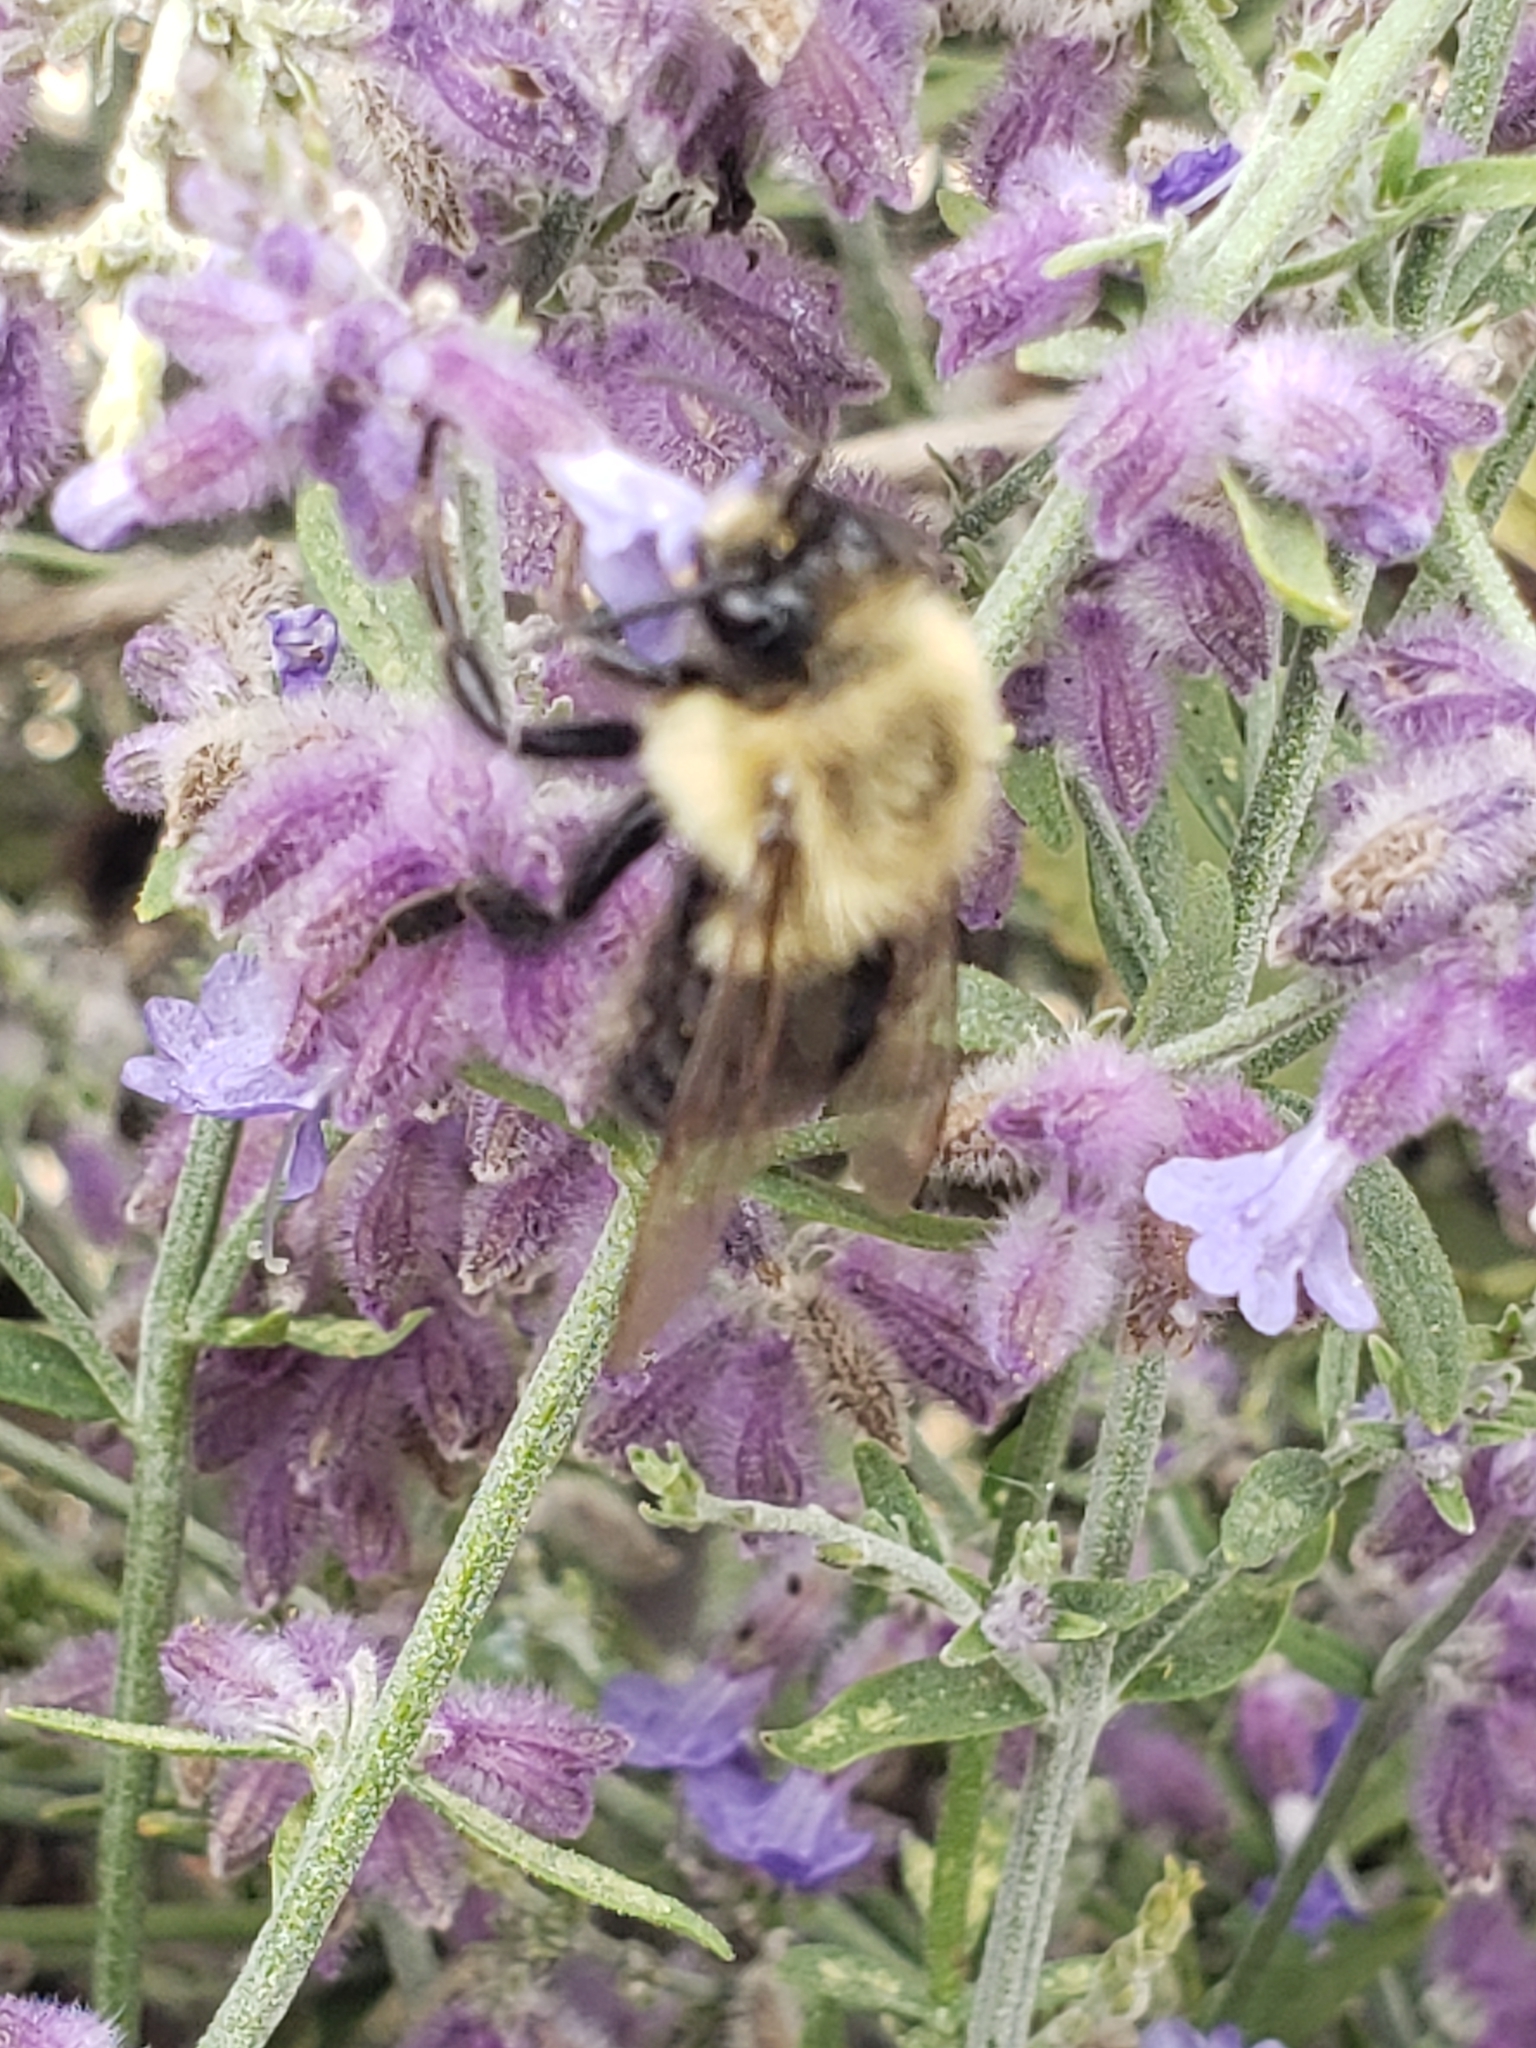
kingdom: Animalia
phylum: Arthropoda
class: Insecta
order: Hymenoptera
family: Apidae
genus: Bombus
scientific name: Bombus impatiens
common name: Common eastern bumble bee
